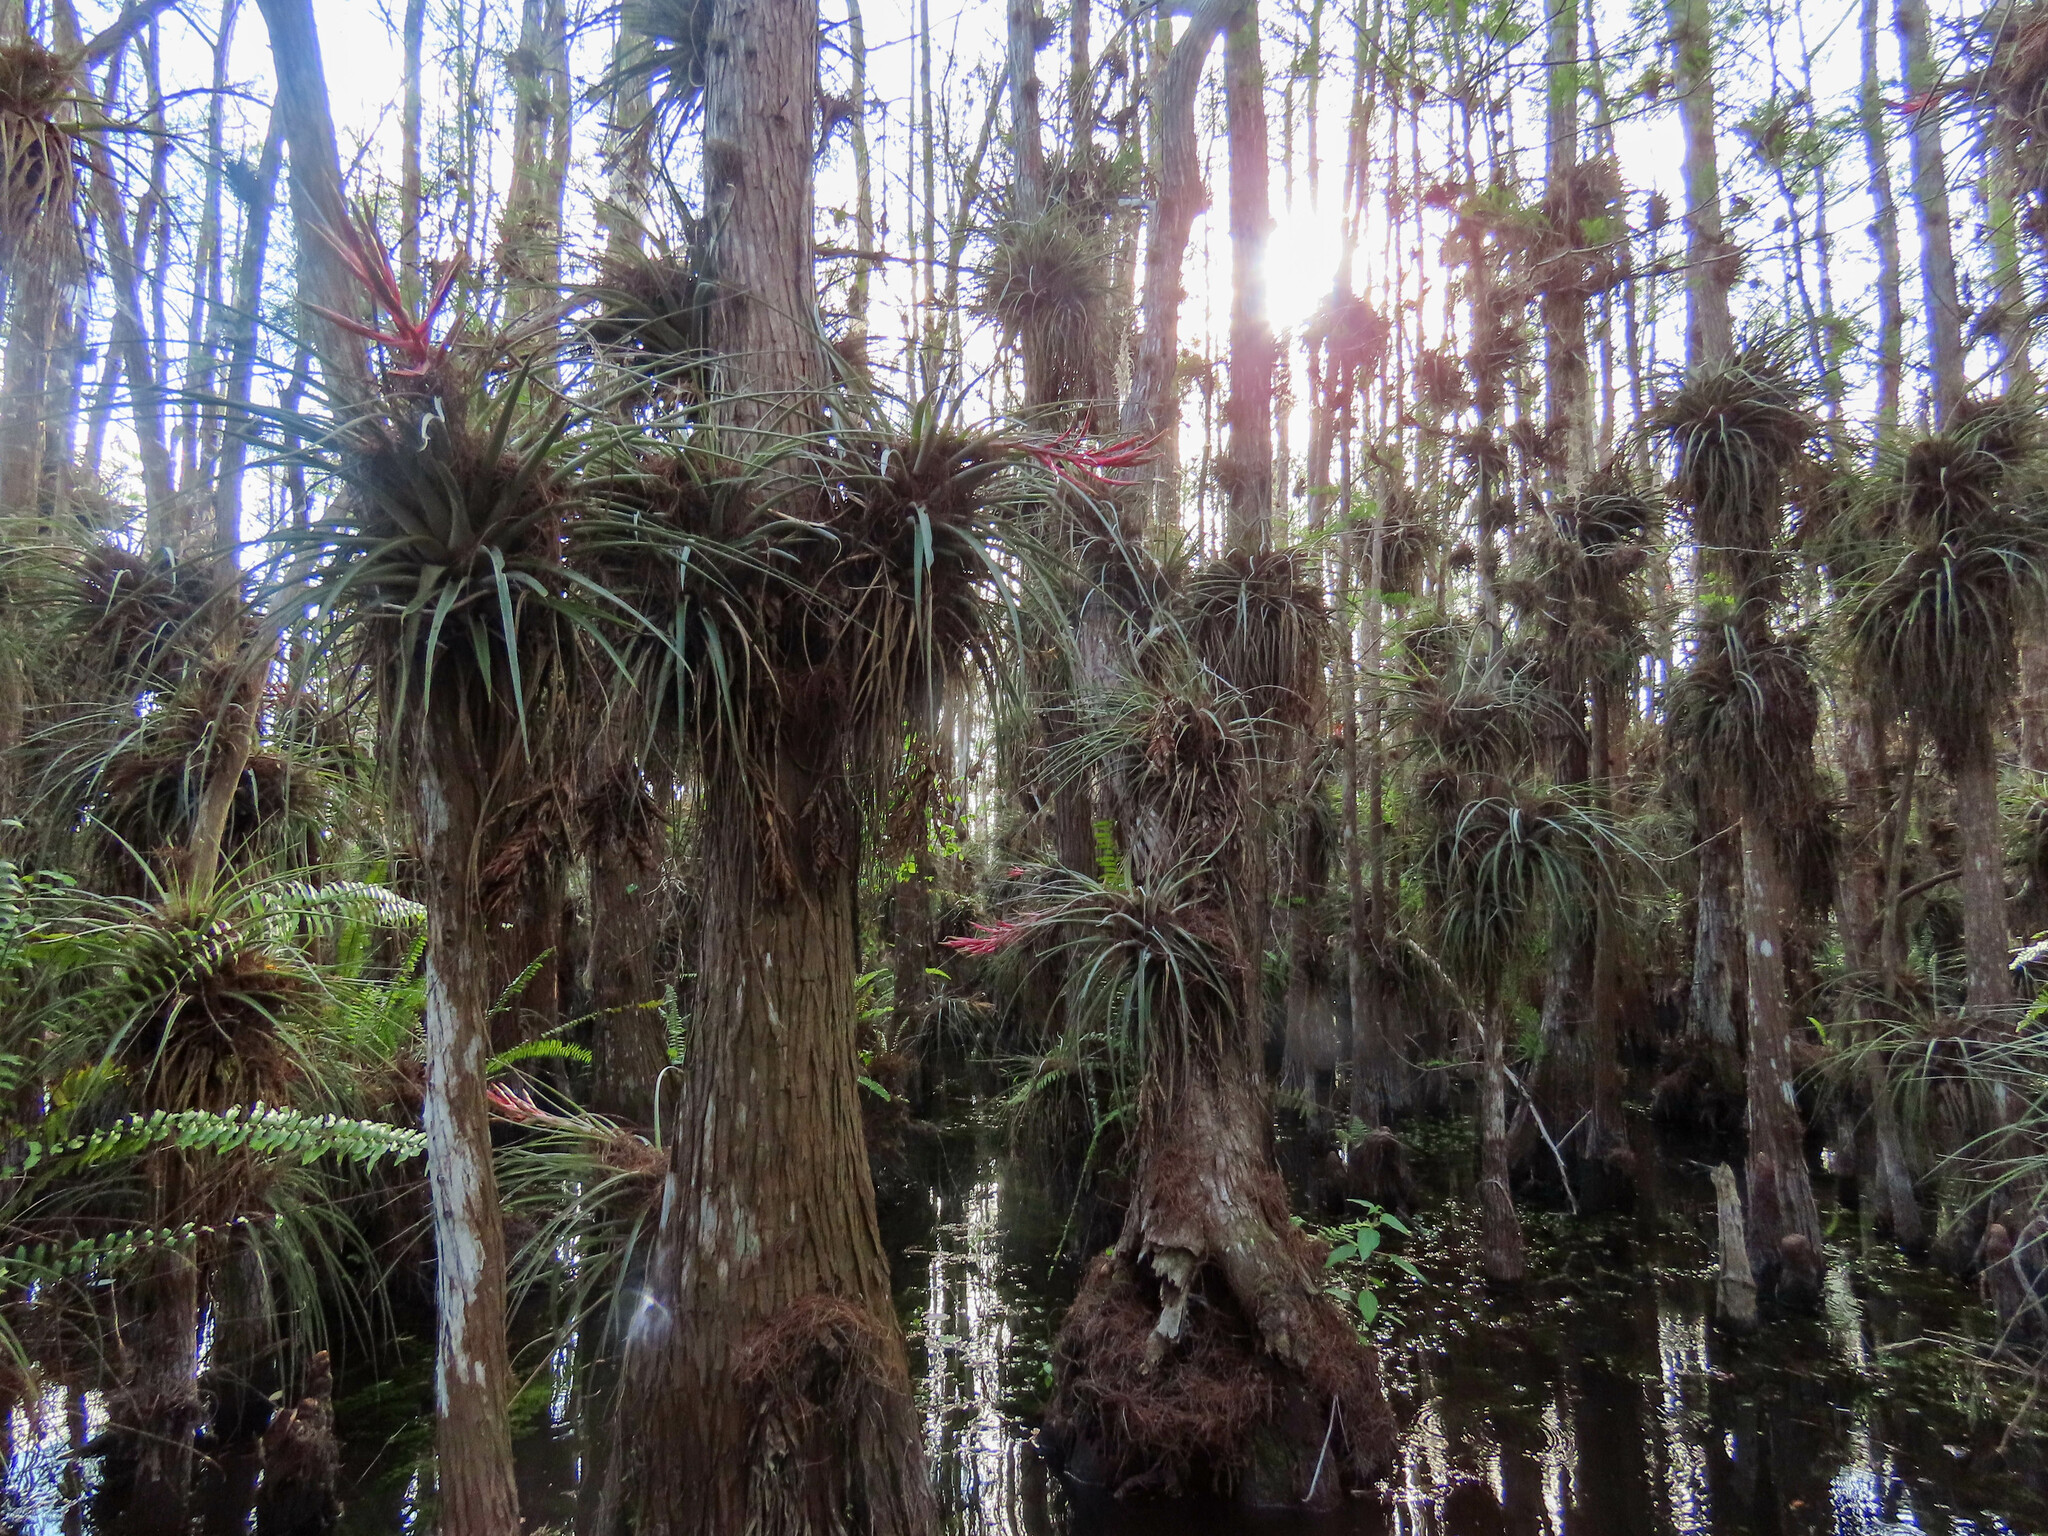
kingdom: Plantae
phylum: Tracheophyta
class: Liliopsida
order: Poales
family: Bromeliaceae
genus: Tillandsia
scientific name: Tillandsia fasciculata
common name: Giant airplant
